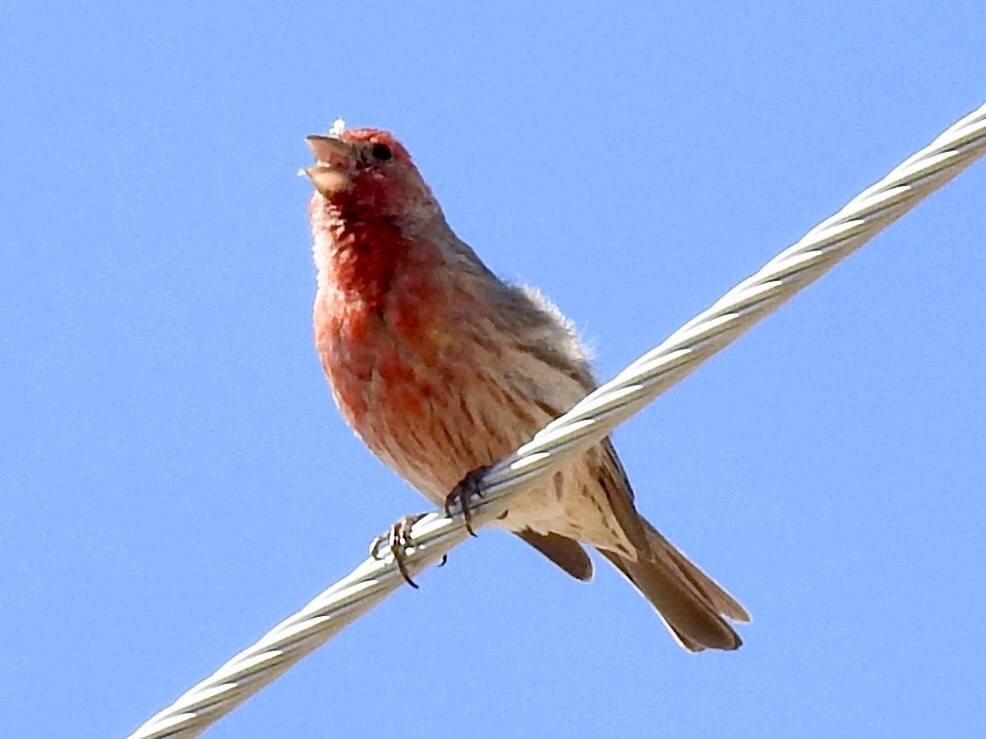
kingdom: Animalia
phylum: Chordata
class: Aves
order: Passeriformes
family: Fringillidae
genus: Haemorhous
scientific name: Haemorhous mexicanus
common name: House finch
